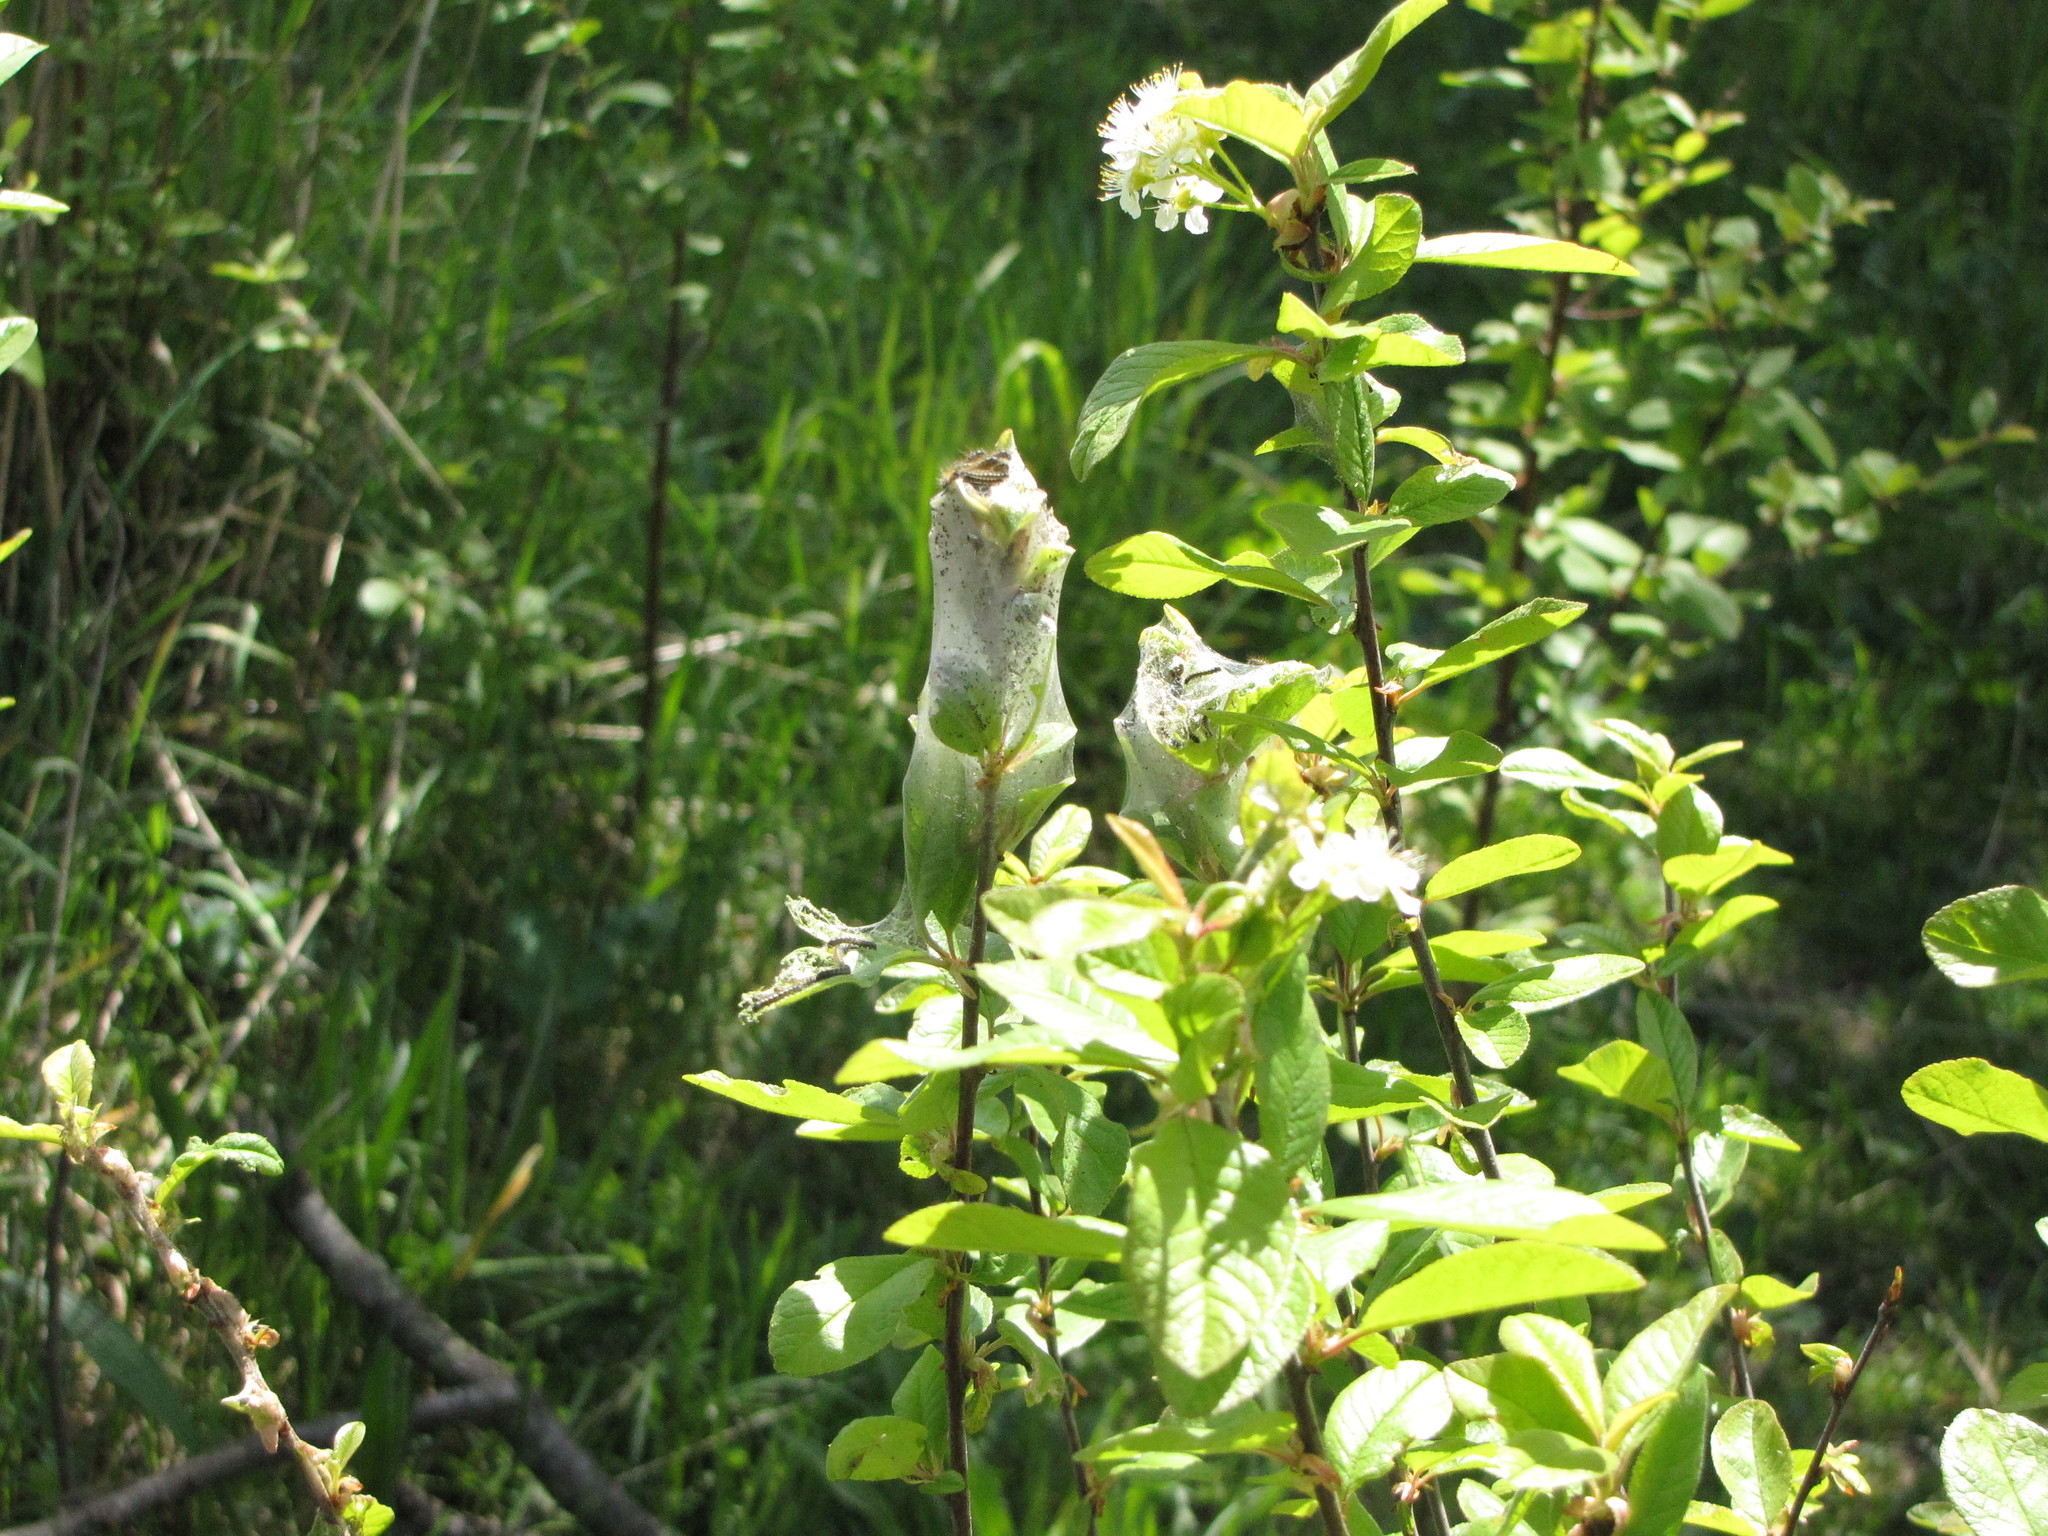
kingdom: Animalia
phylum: Arthropoda
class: Insecta
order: Lepidoptera
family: Lasiocampidae
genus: Malacosoma
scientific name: Malacosoma californica
